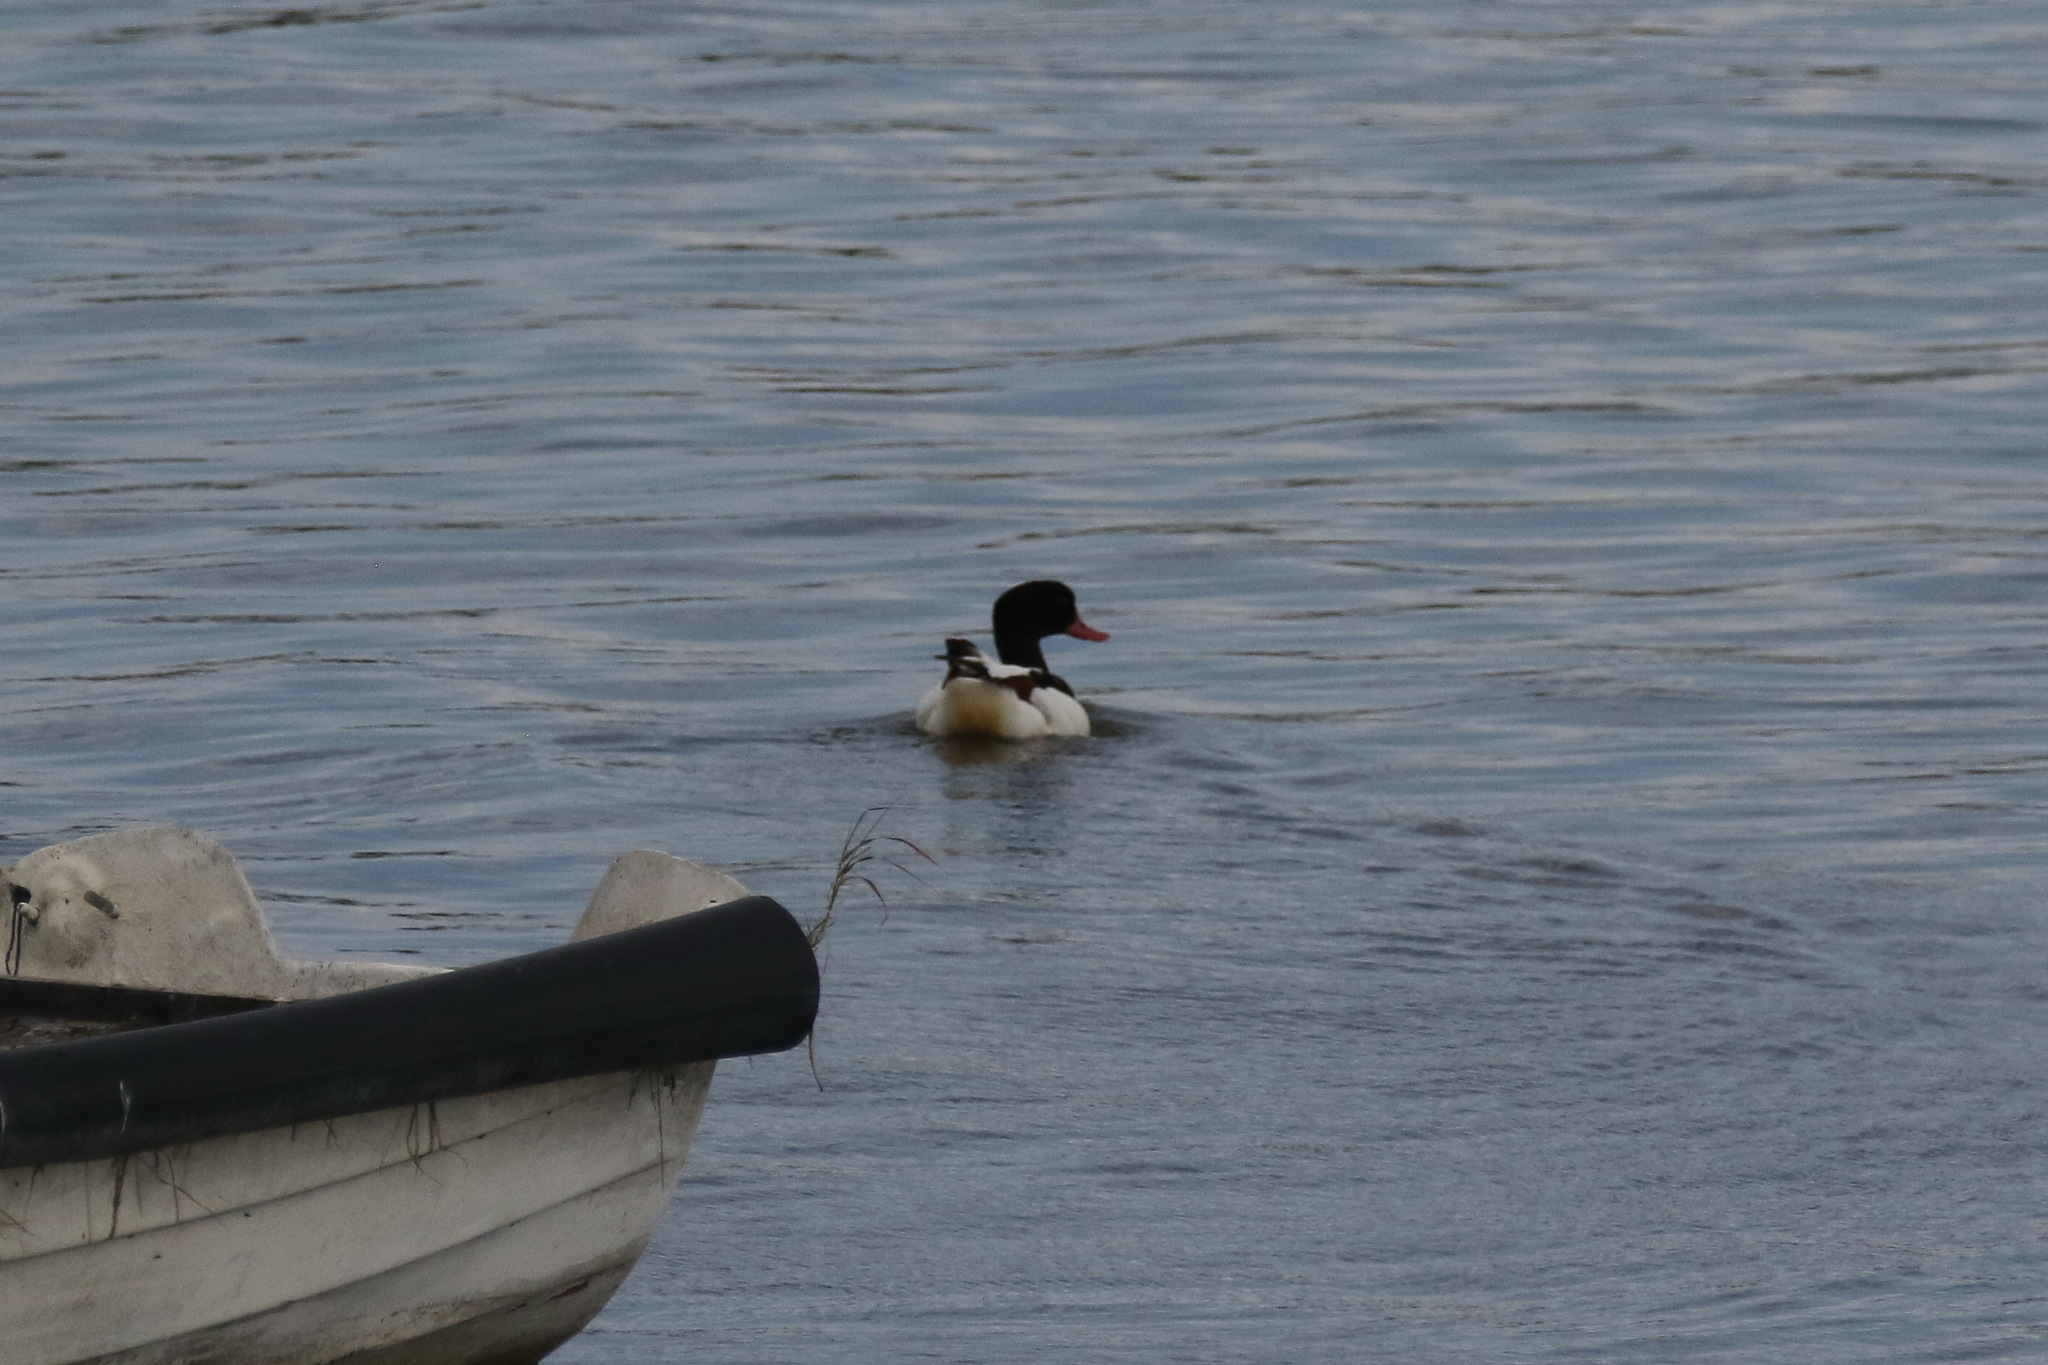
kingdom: Animalia
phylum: Chordata
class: Aves
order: Anseriformes
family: Anatidae
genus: Tadorna
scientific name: Tadorna tadorna
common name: Common shelduck
